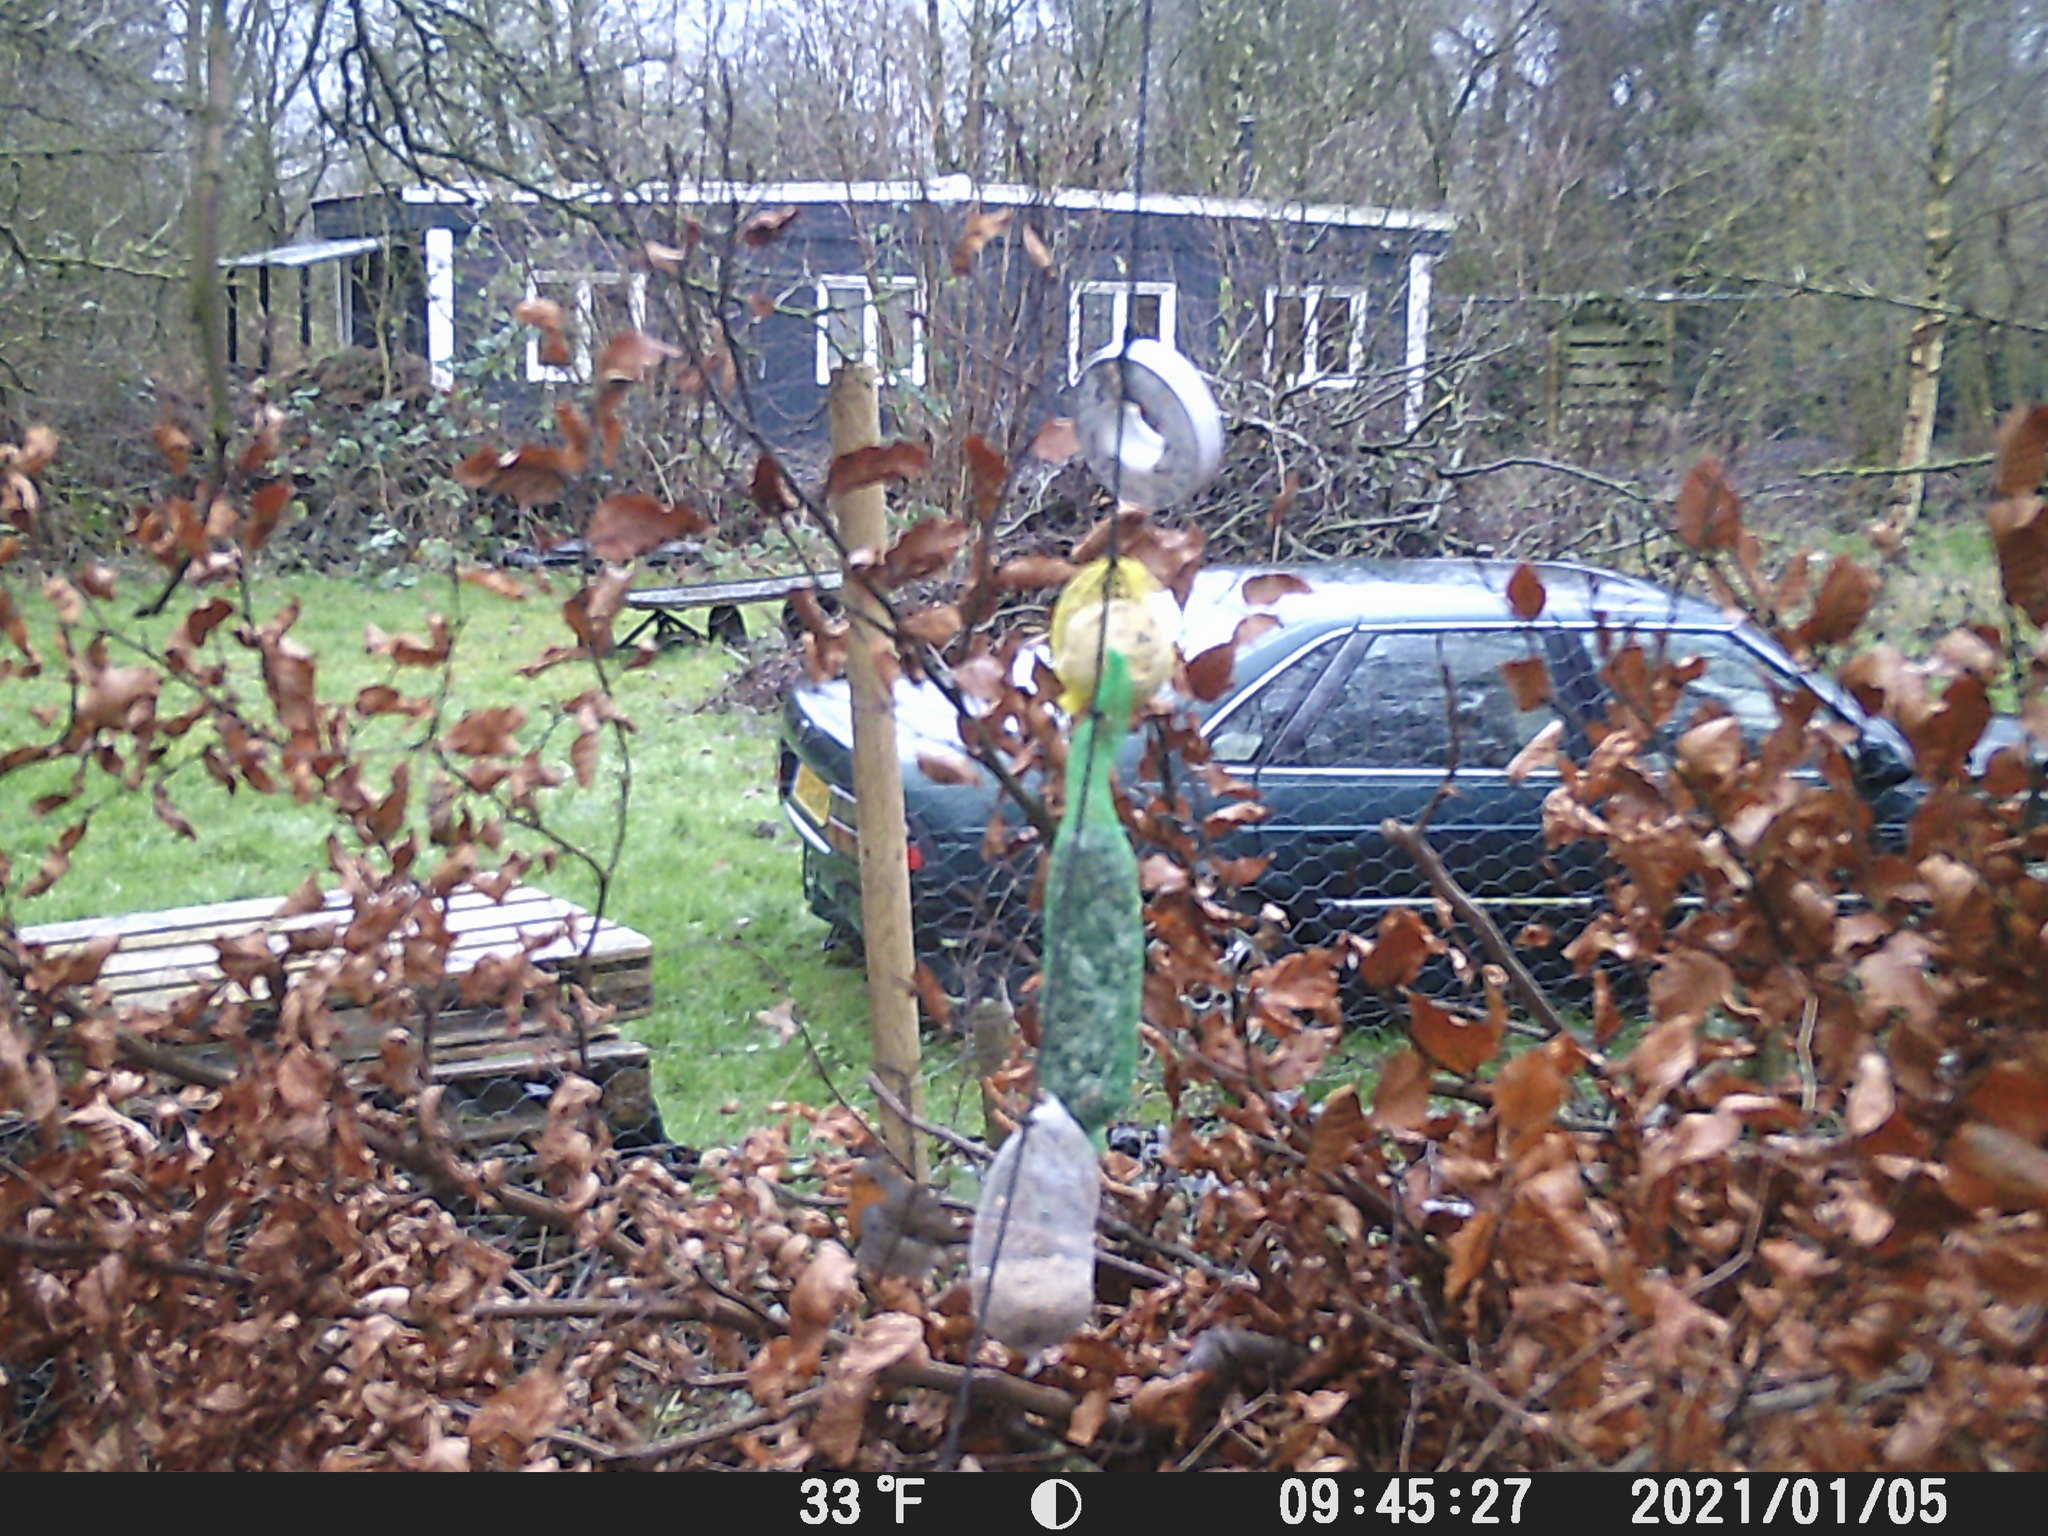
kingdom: Animalia
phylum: Chordata
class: Aves
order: Passeriformes
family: Muscicapidae
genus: Erithacus
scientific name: Erithacus rubecula
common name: European robin
